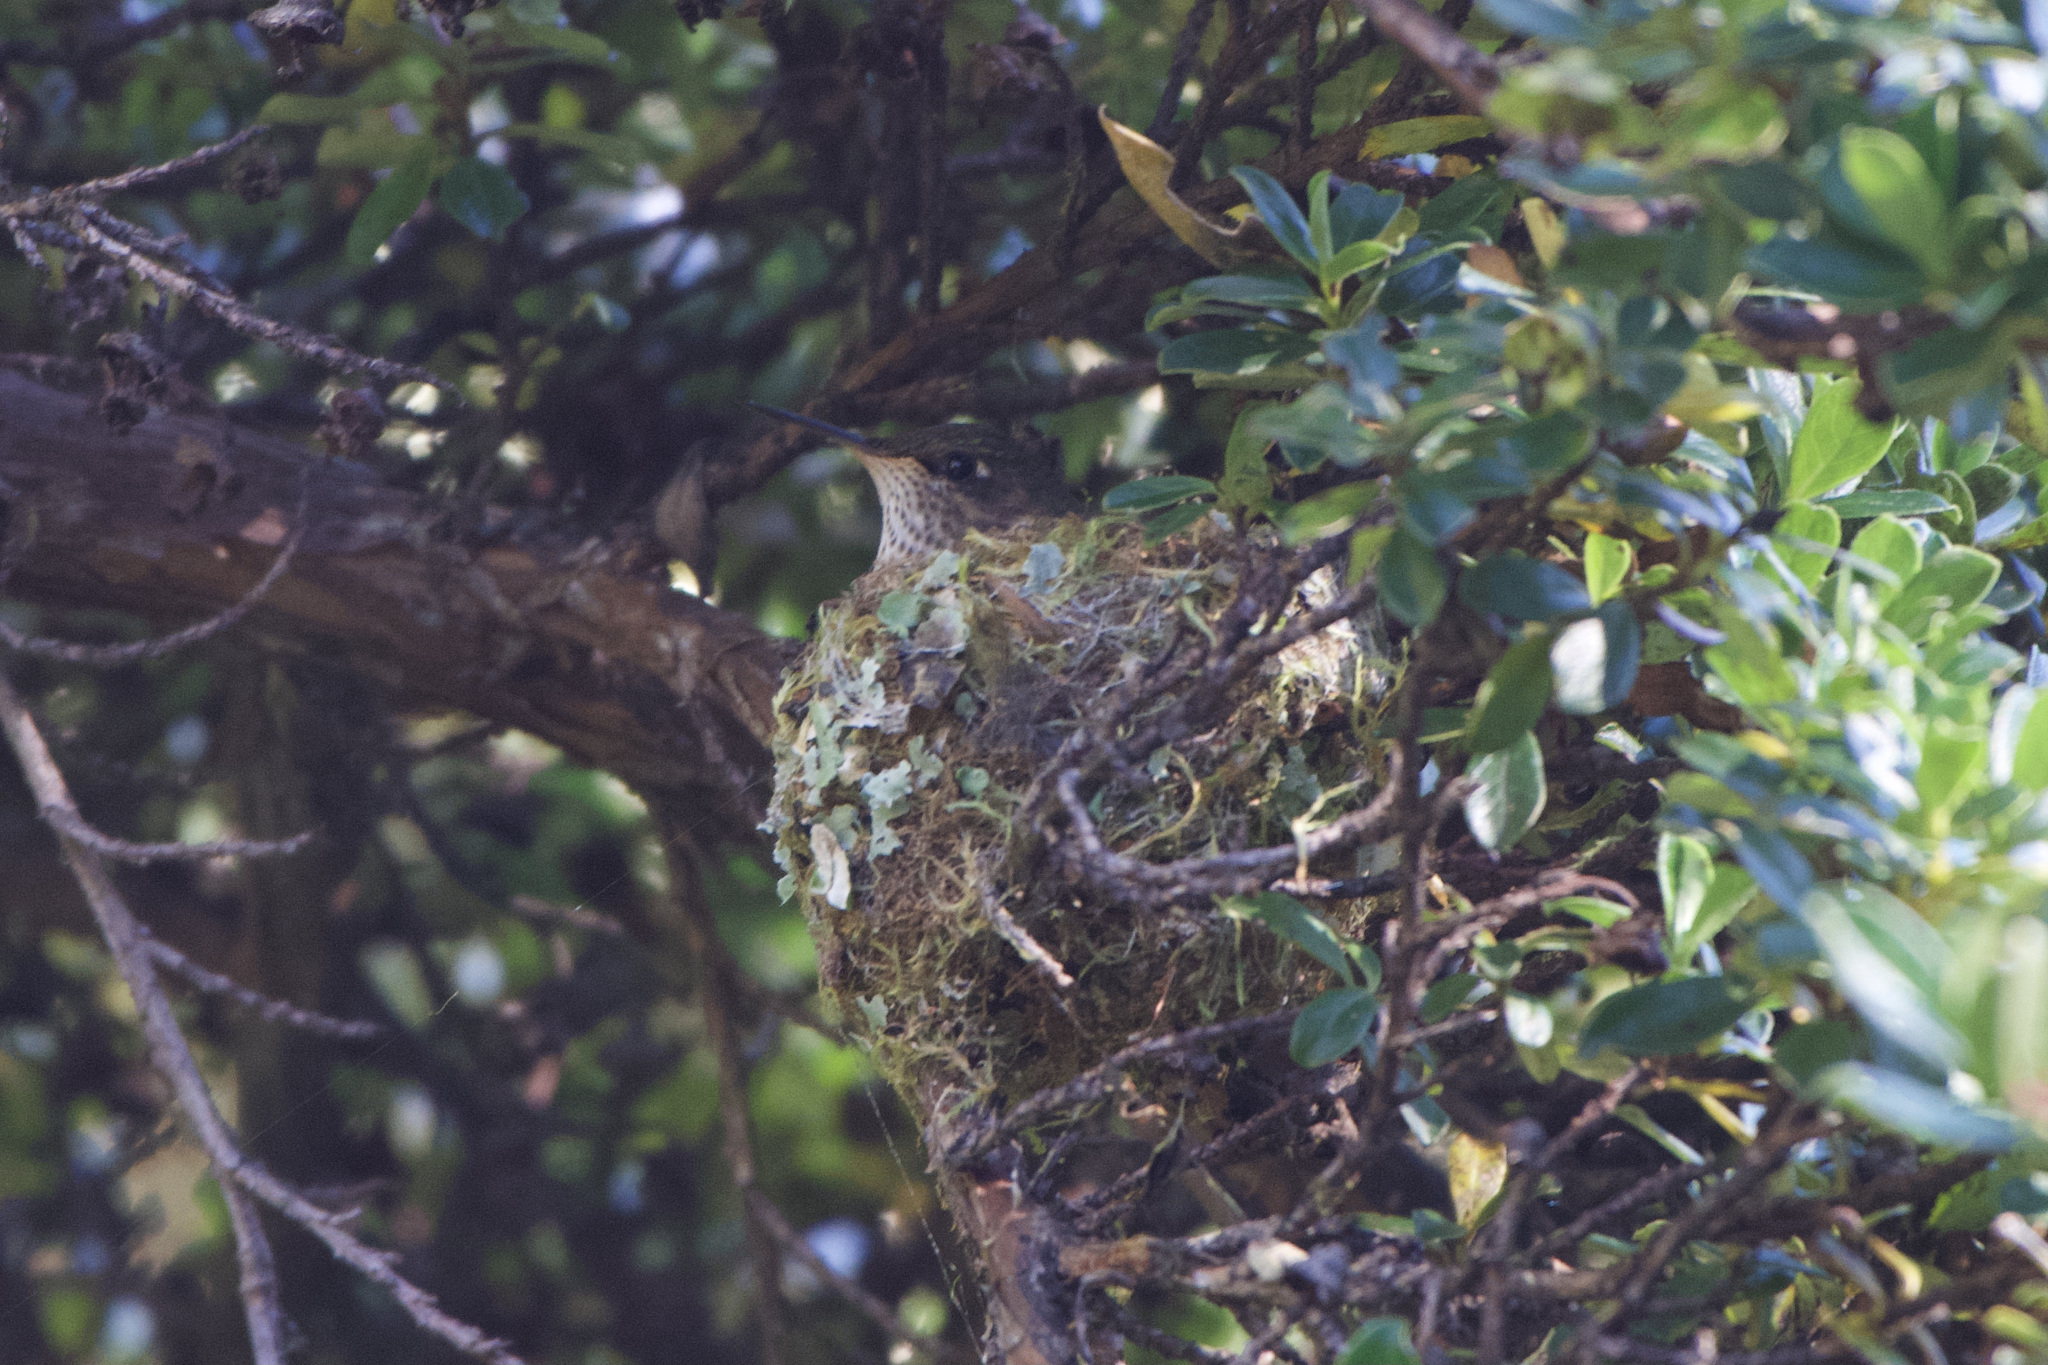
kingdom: Animalia
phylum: Chordata
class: Aves
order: Apodiformes
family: Trochilidae
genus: Selasphorus
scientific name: Selasphorus flammula
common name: Volcano hummingbird
